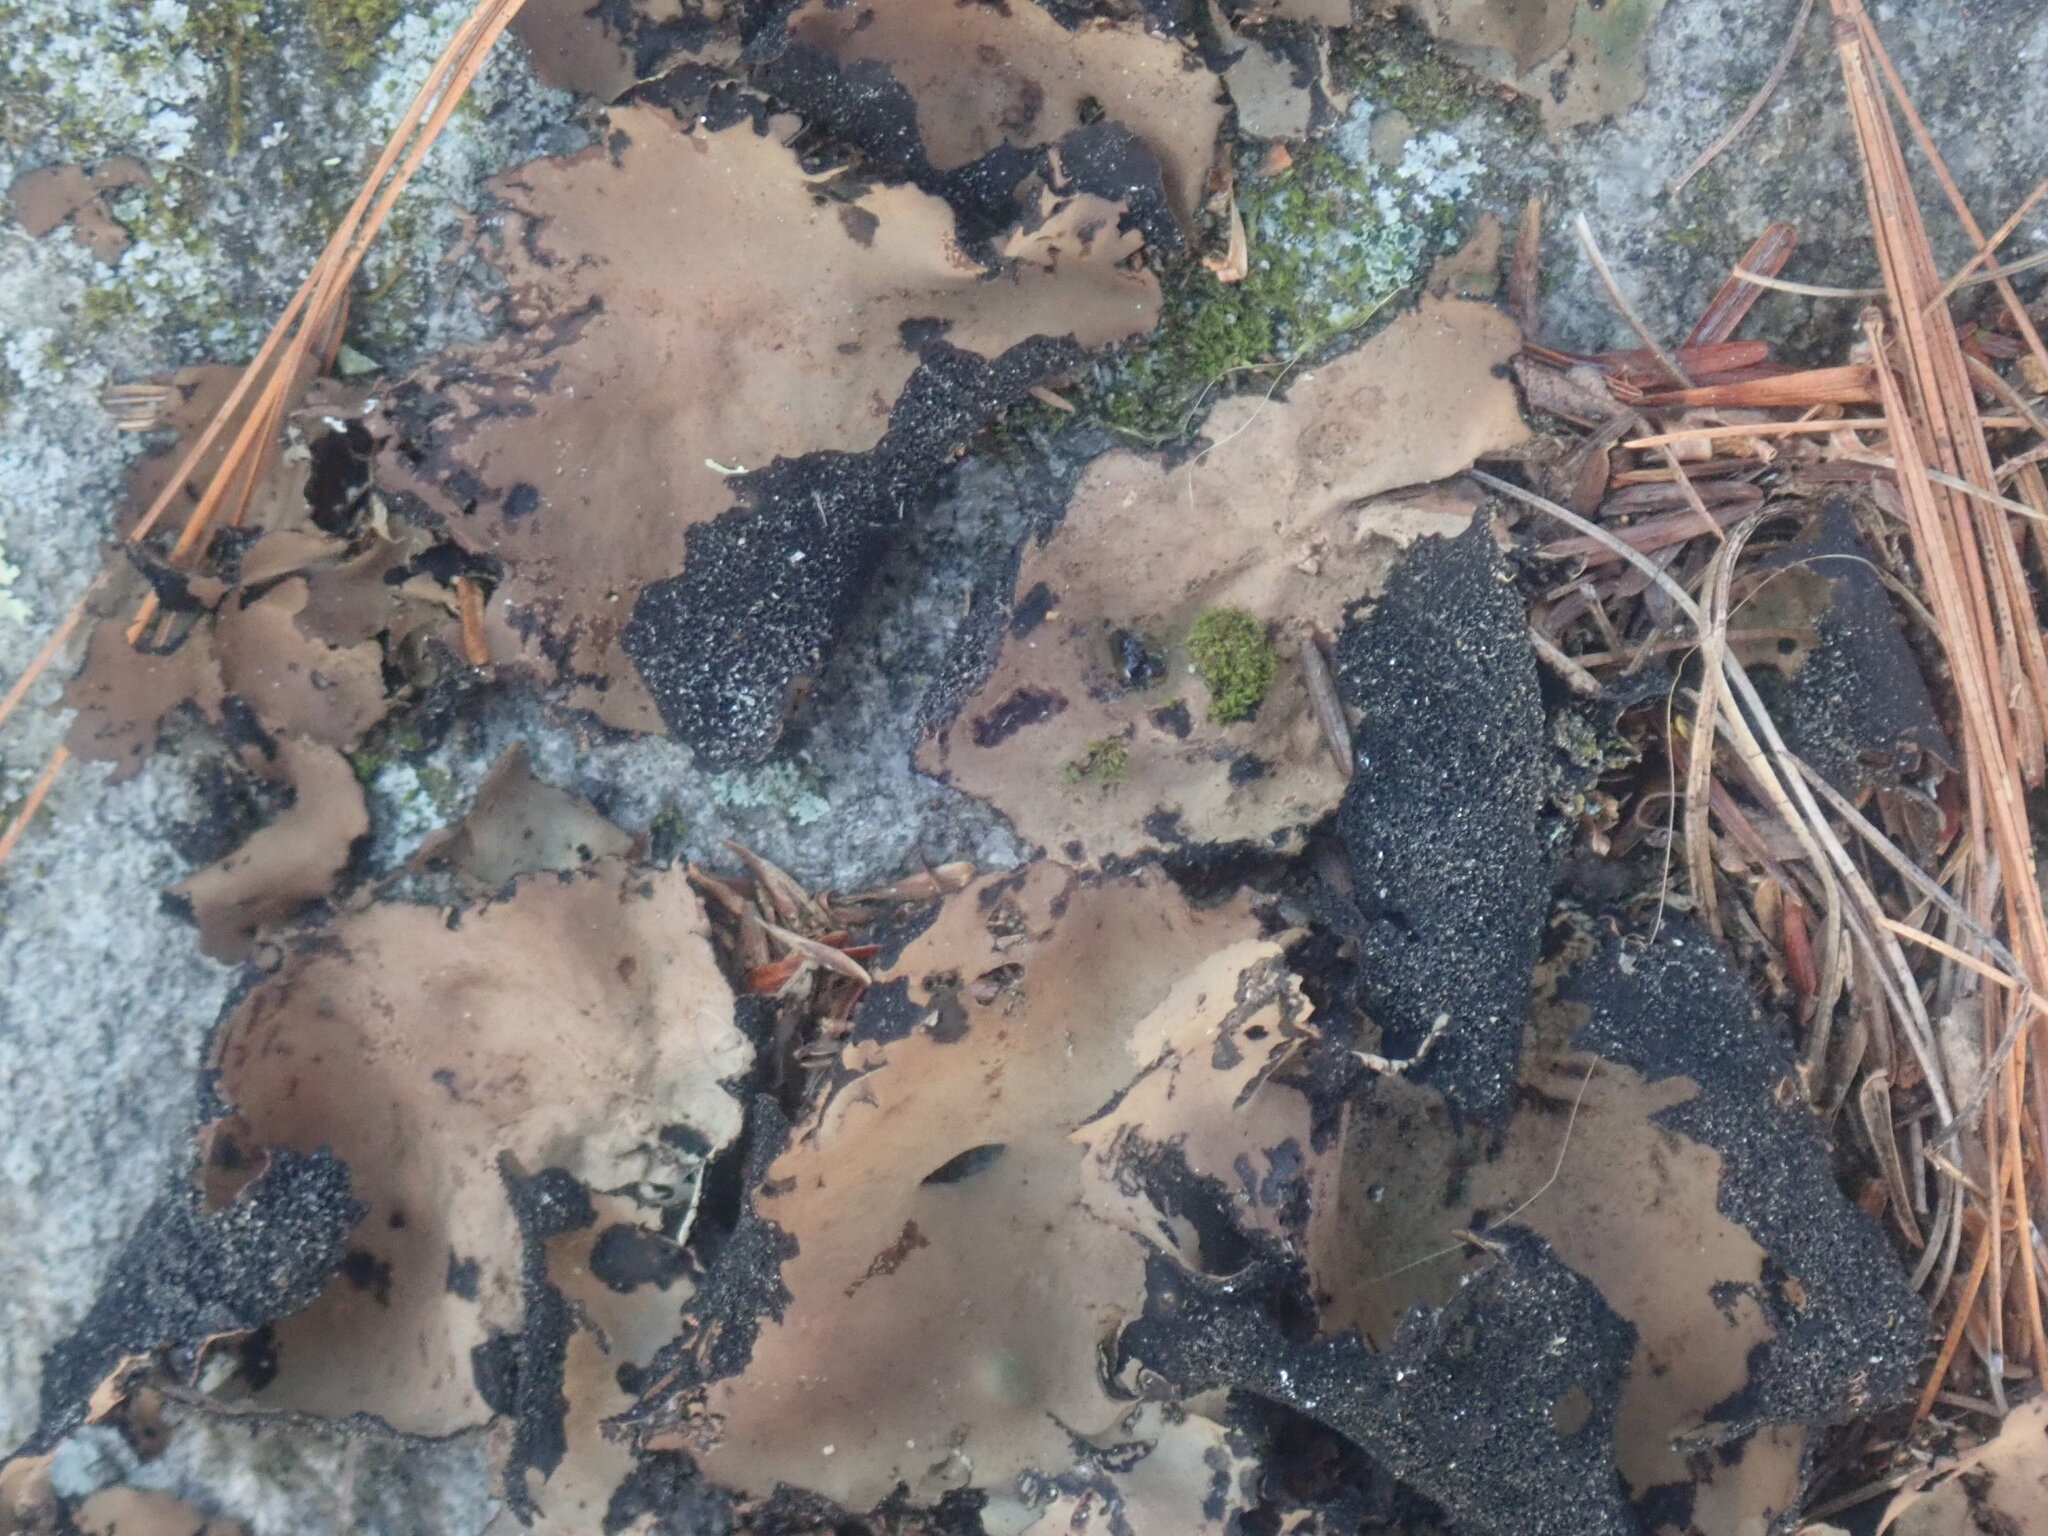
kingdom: Fungi
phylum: Ascomycota
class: Lecanoromycetes
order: Umbilicariales
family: Umbilicariaceae
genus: Umbilicaria
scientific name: Umbilicaria mammulata
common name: Smooth rock tripe
